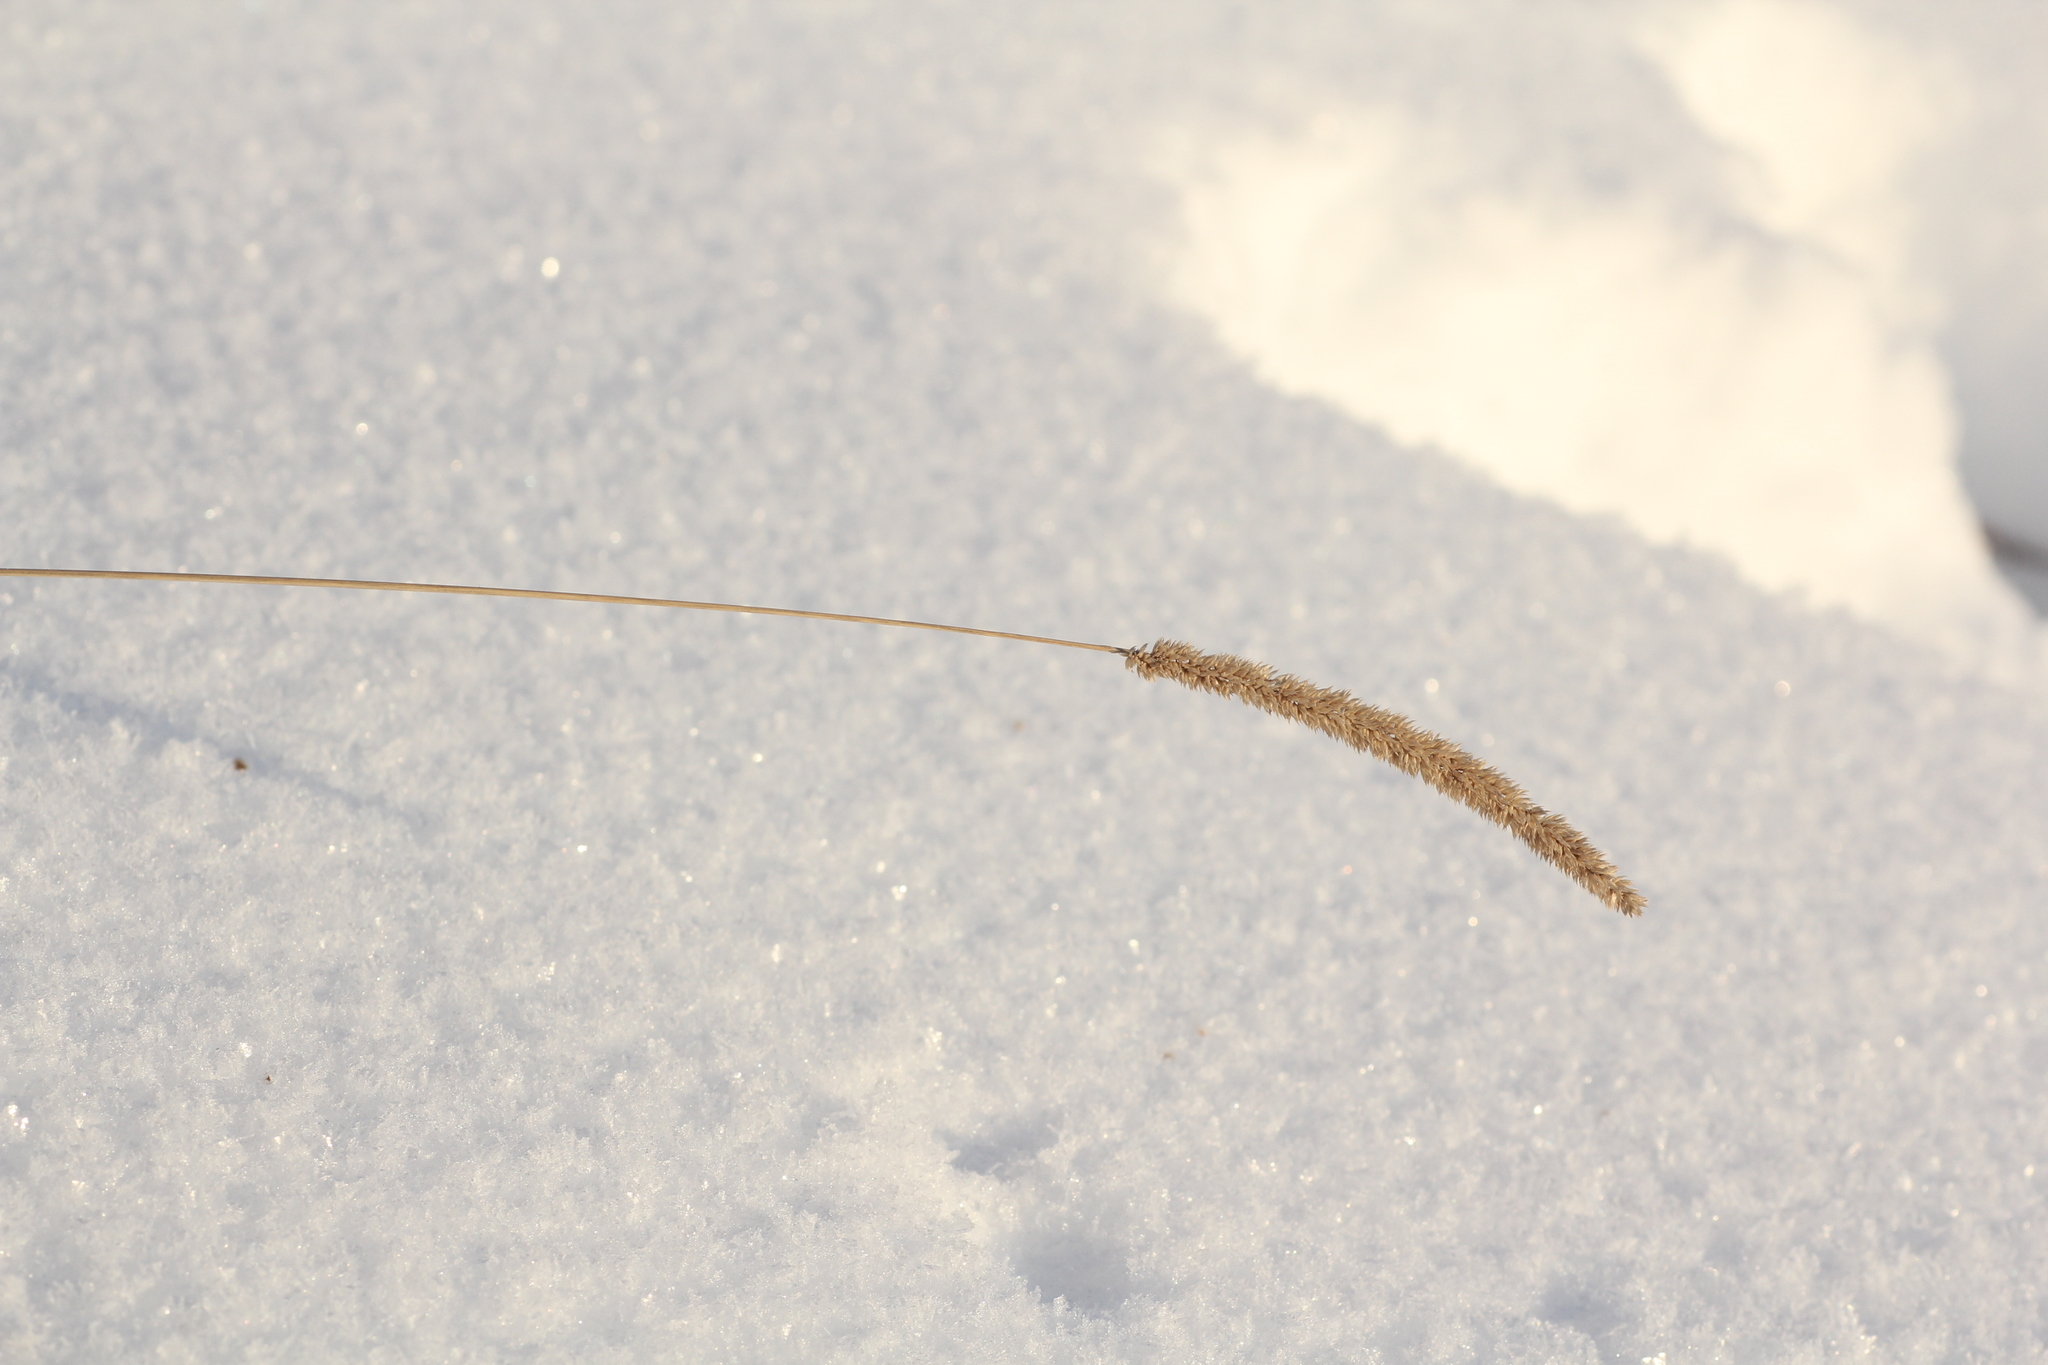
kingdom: Plantae
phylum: Tracheophyta
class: Liliopsida
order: Poales
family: Poaceae
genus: Phleum
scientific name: Phleum phleoides
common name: Purple-stem cat's-tail
